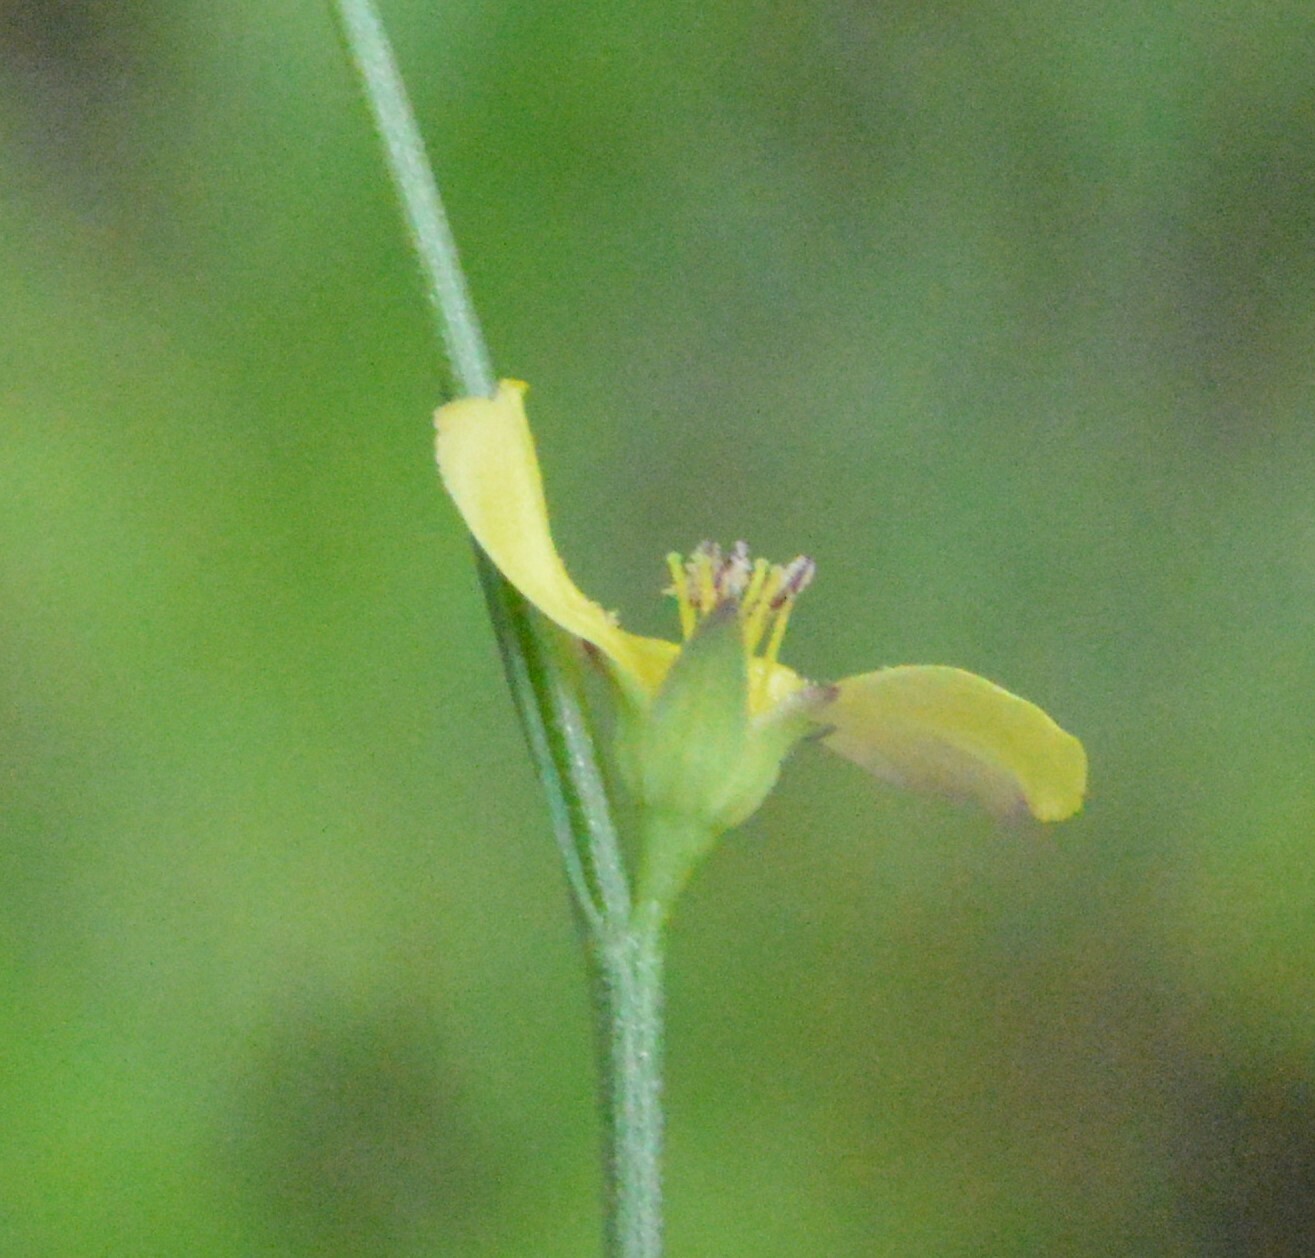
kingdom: Plantae
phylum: Tracheophyta
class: Magnoliopsida
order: Malpighiales
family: Linaceae
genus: Linum
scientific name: Linum medium
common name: Stiff yellow flax
